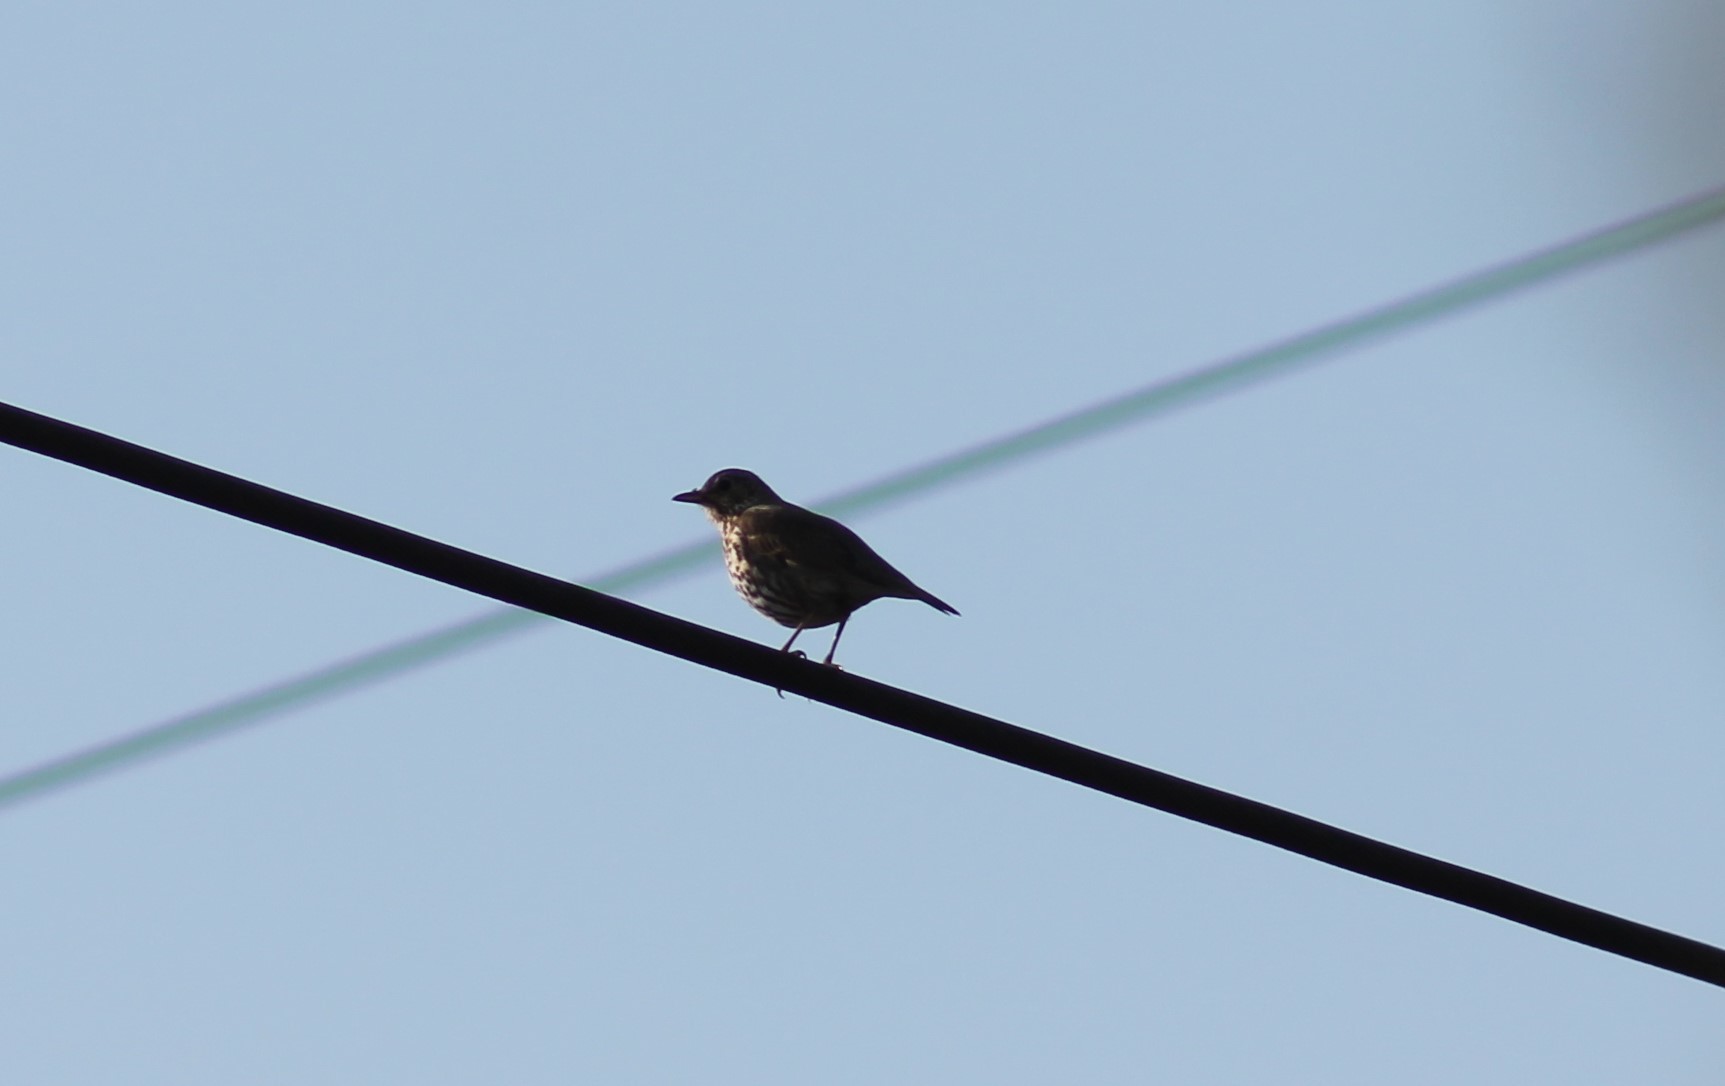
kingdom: Animalia
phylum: Chordata
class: Aves
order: Passeriformes
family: Turdidae
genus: Turdus
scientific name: Turdus philomelos
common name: Song thrush
